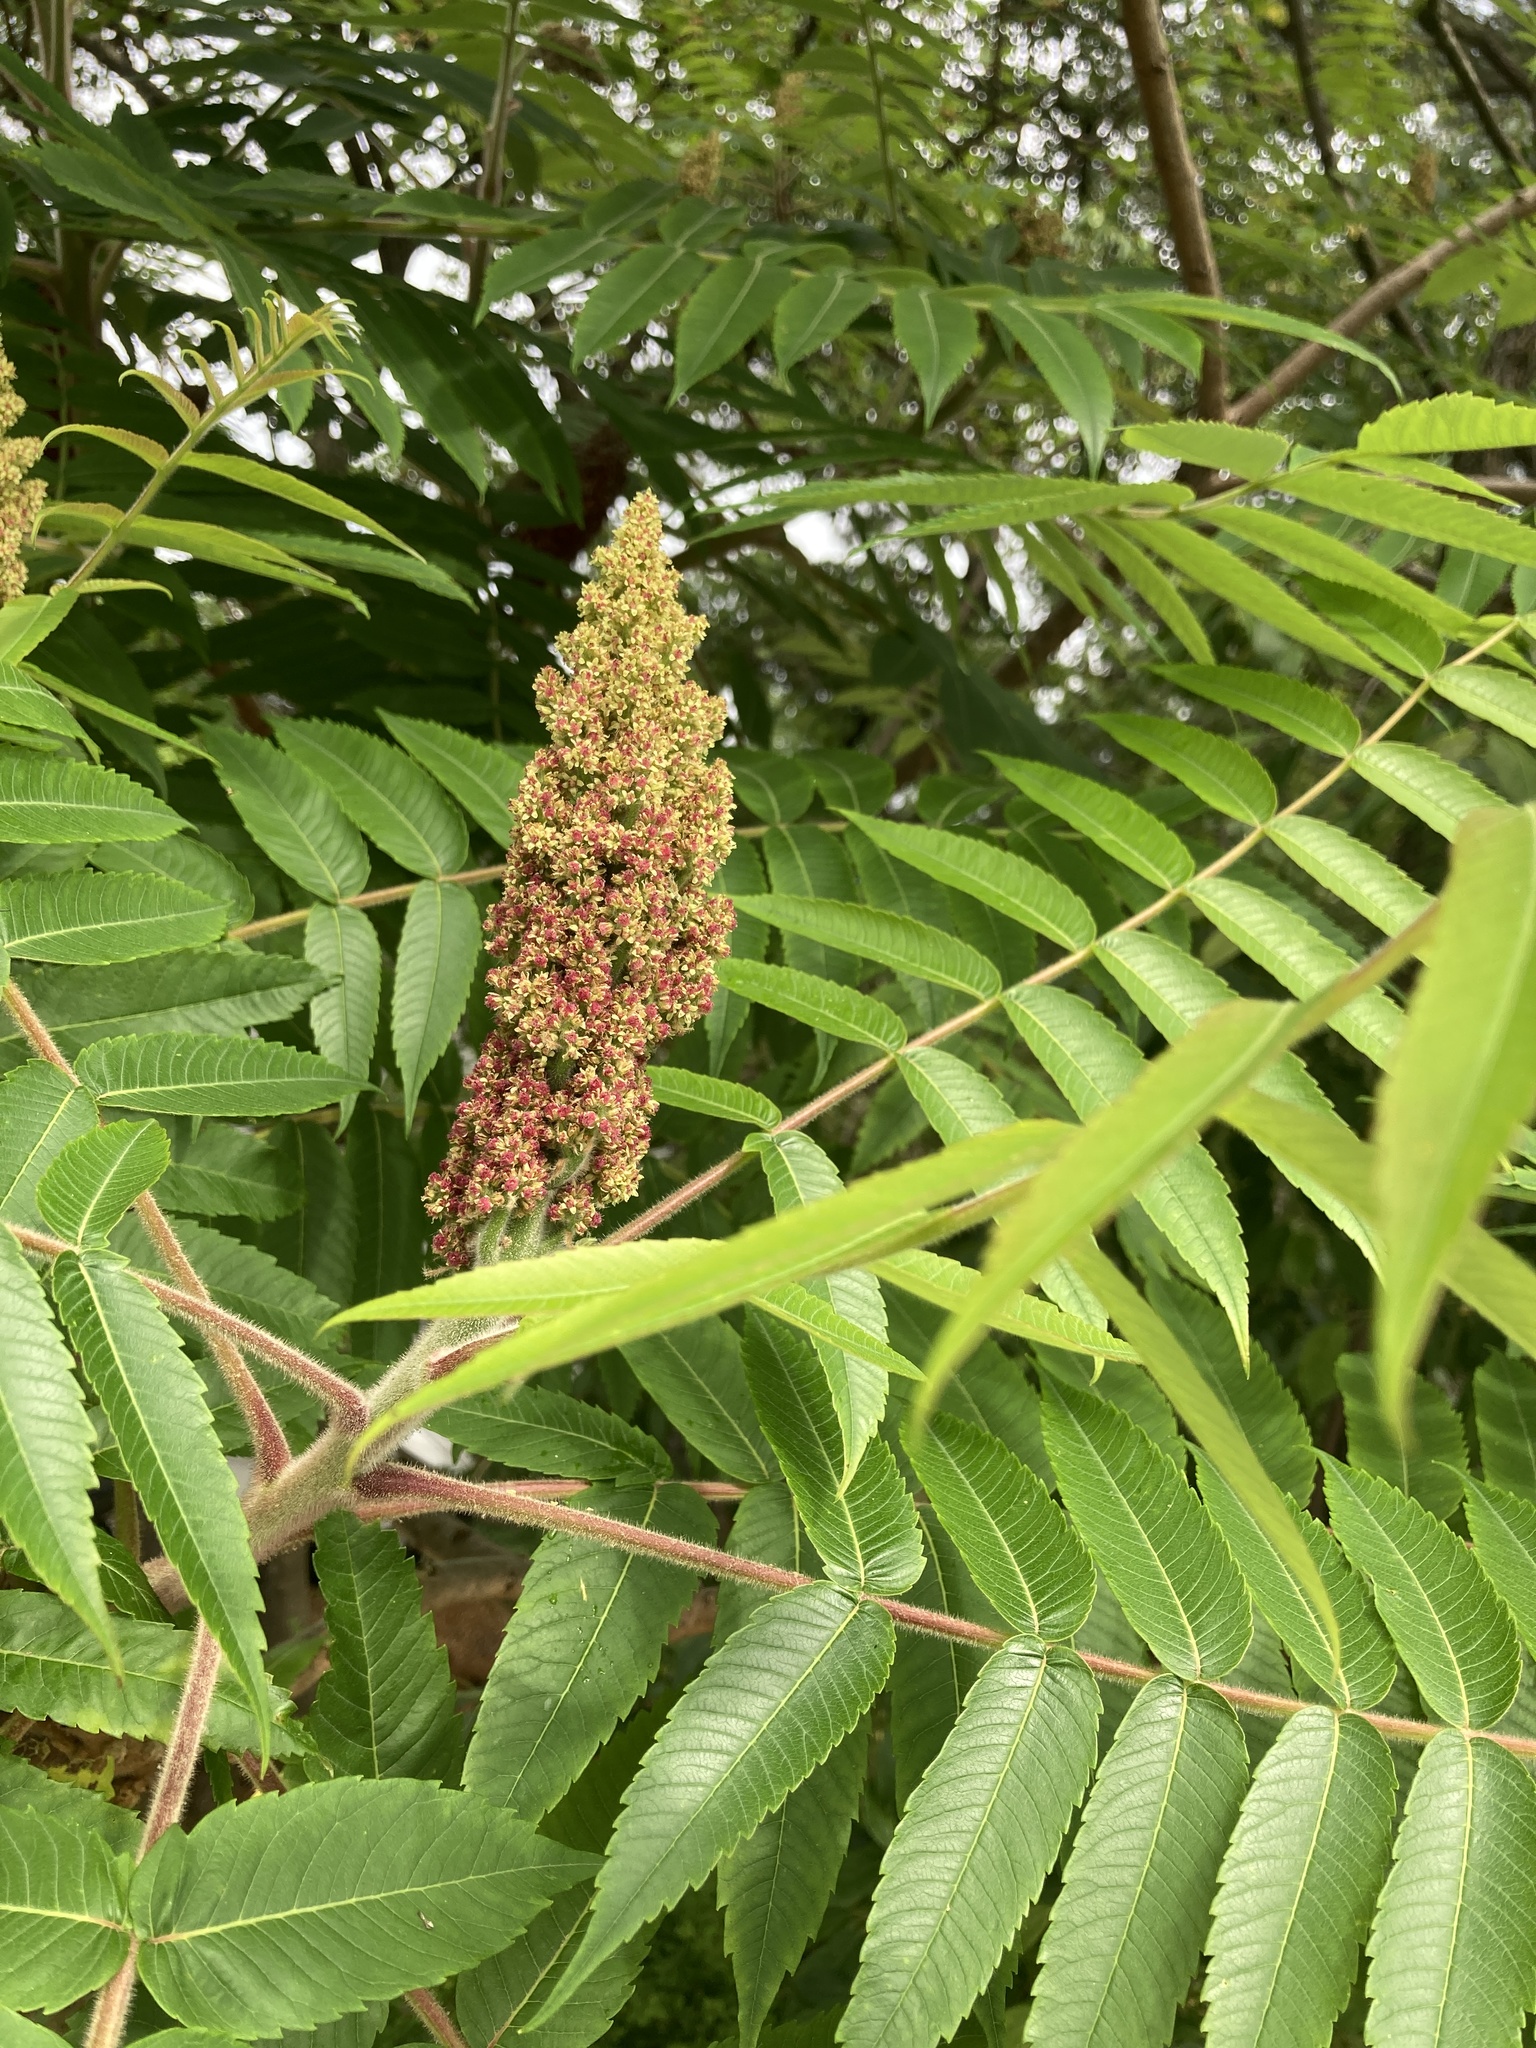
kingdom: Plantae
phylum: Tracheophyta
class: Magnoliopsida
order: Sapindales
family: Anacardiaceae
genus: Rhus
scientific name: Rhus typhina
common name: Staghorn sumac
